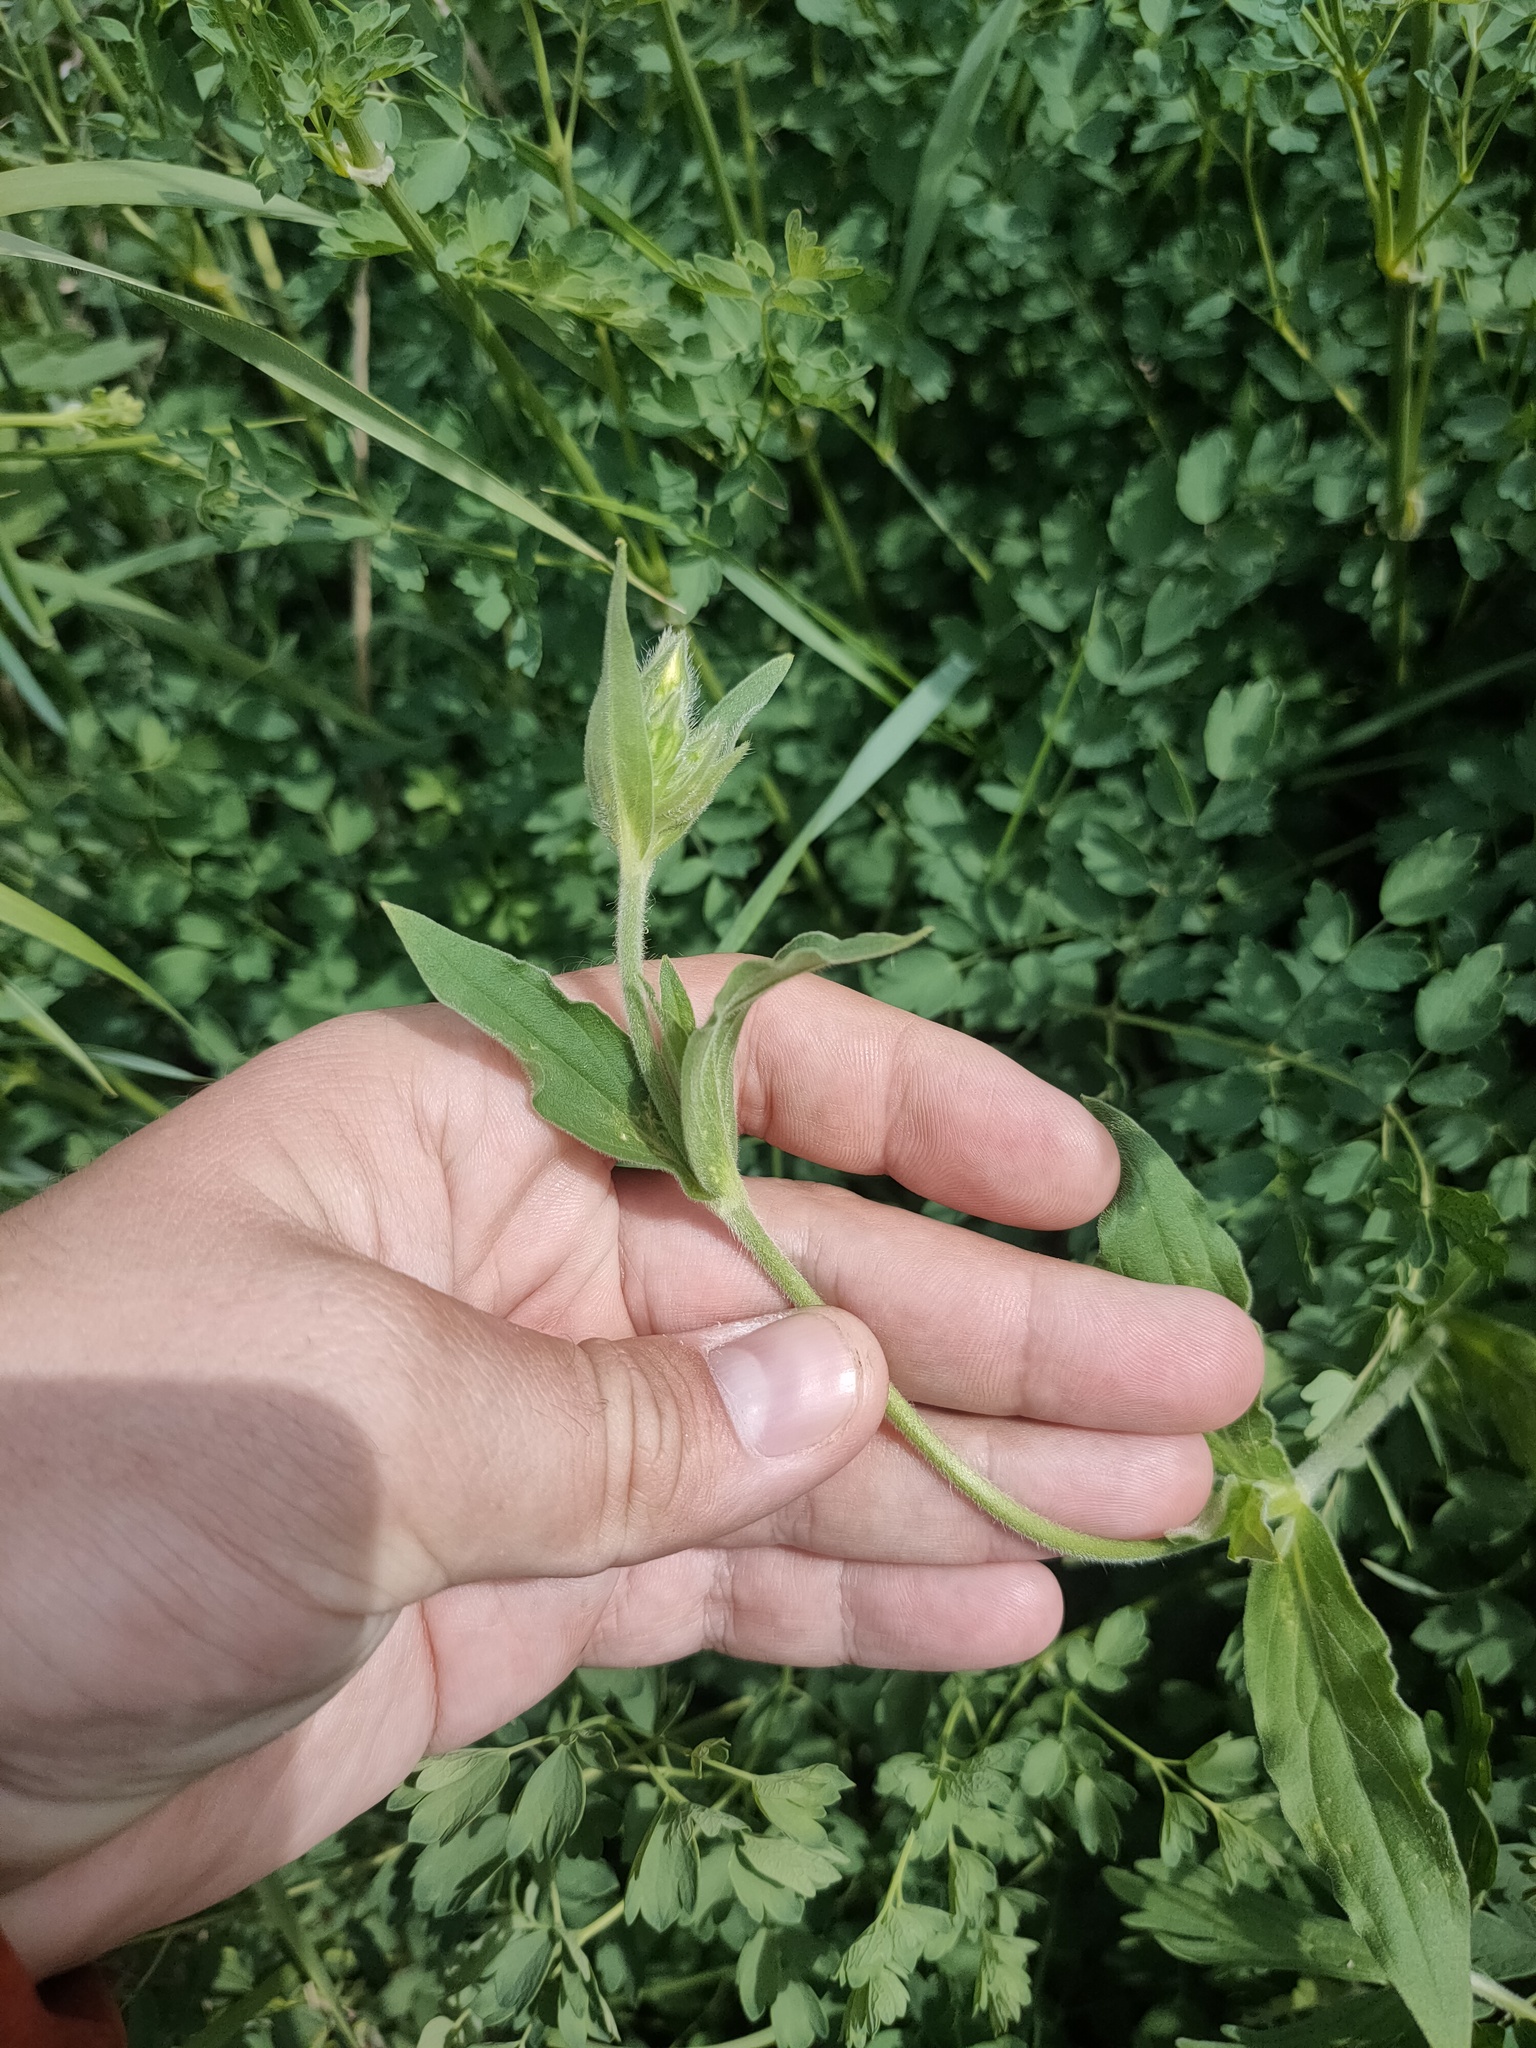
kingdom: Plantae
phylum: Tracheophyta
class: Magnoliopsida
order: Caryophyllales
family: Caryophyllaceae
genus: Silene
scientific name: Silene latifolia
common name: White campion
